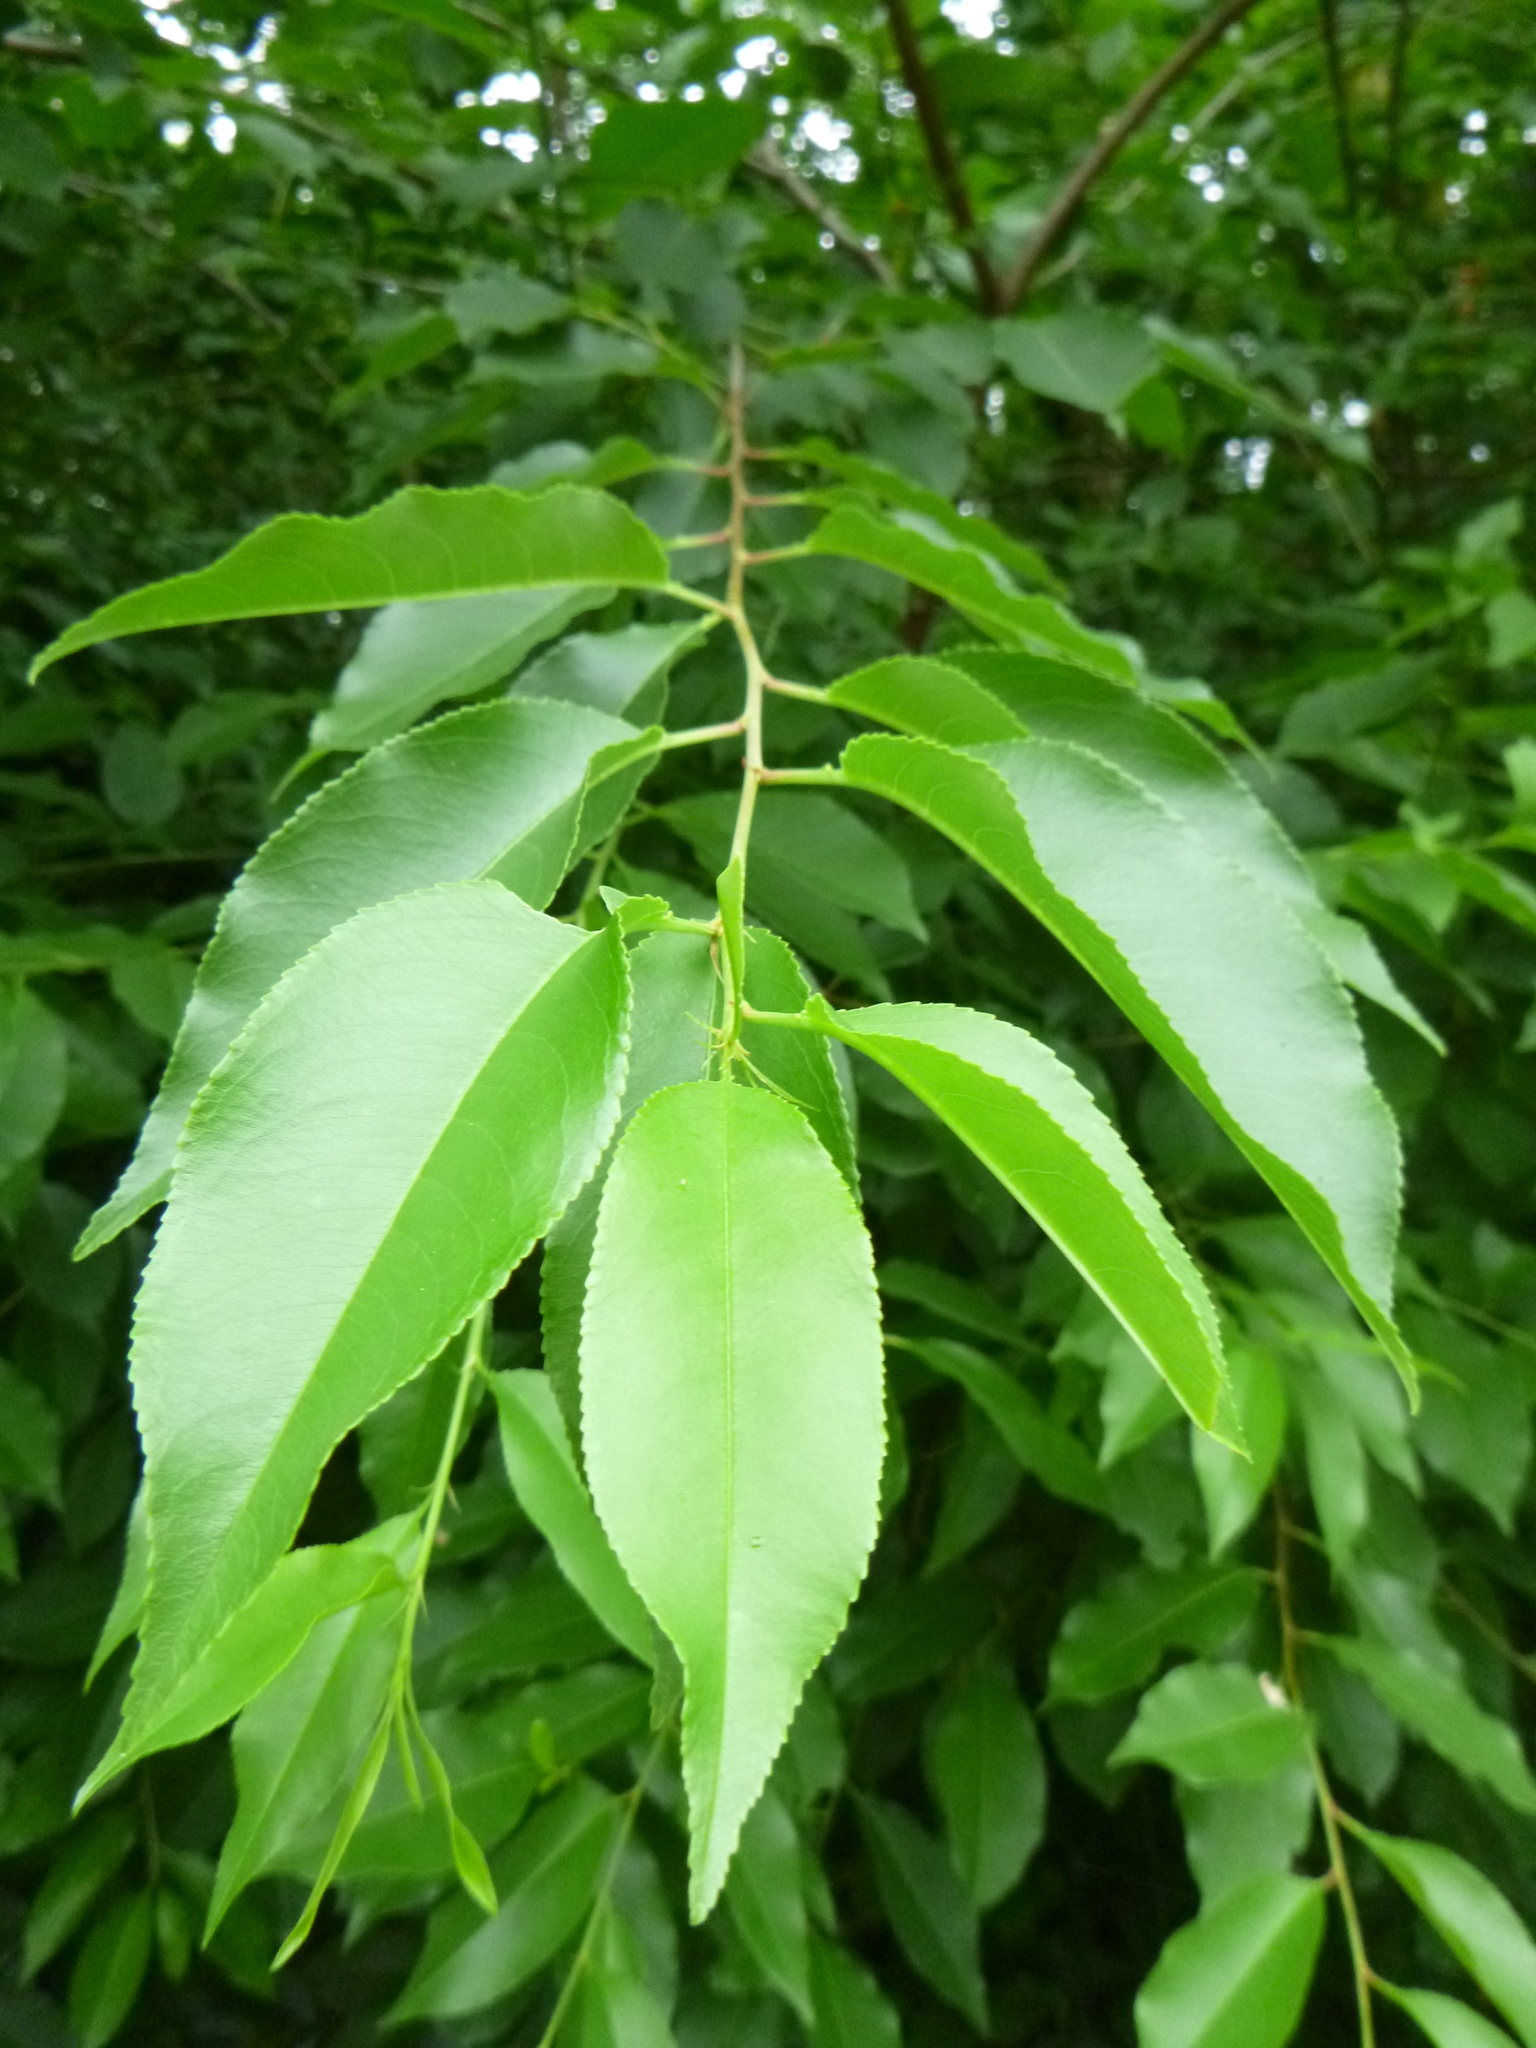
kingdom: Plantae
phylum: Tracheophyta
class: Magnoliopsida
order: Rosales
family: Rosaceae
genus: Prunus
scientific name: Prunus serotina
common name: Black cherry
